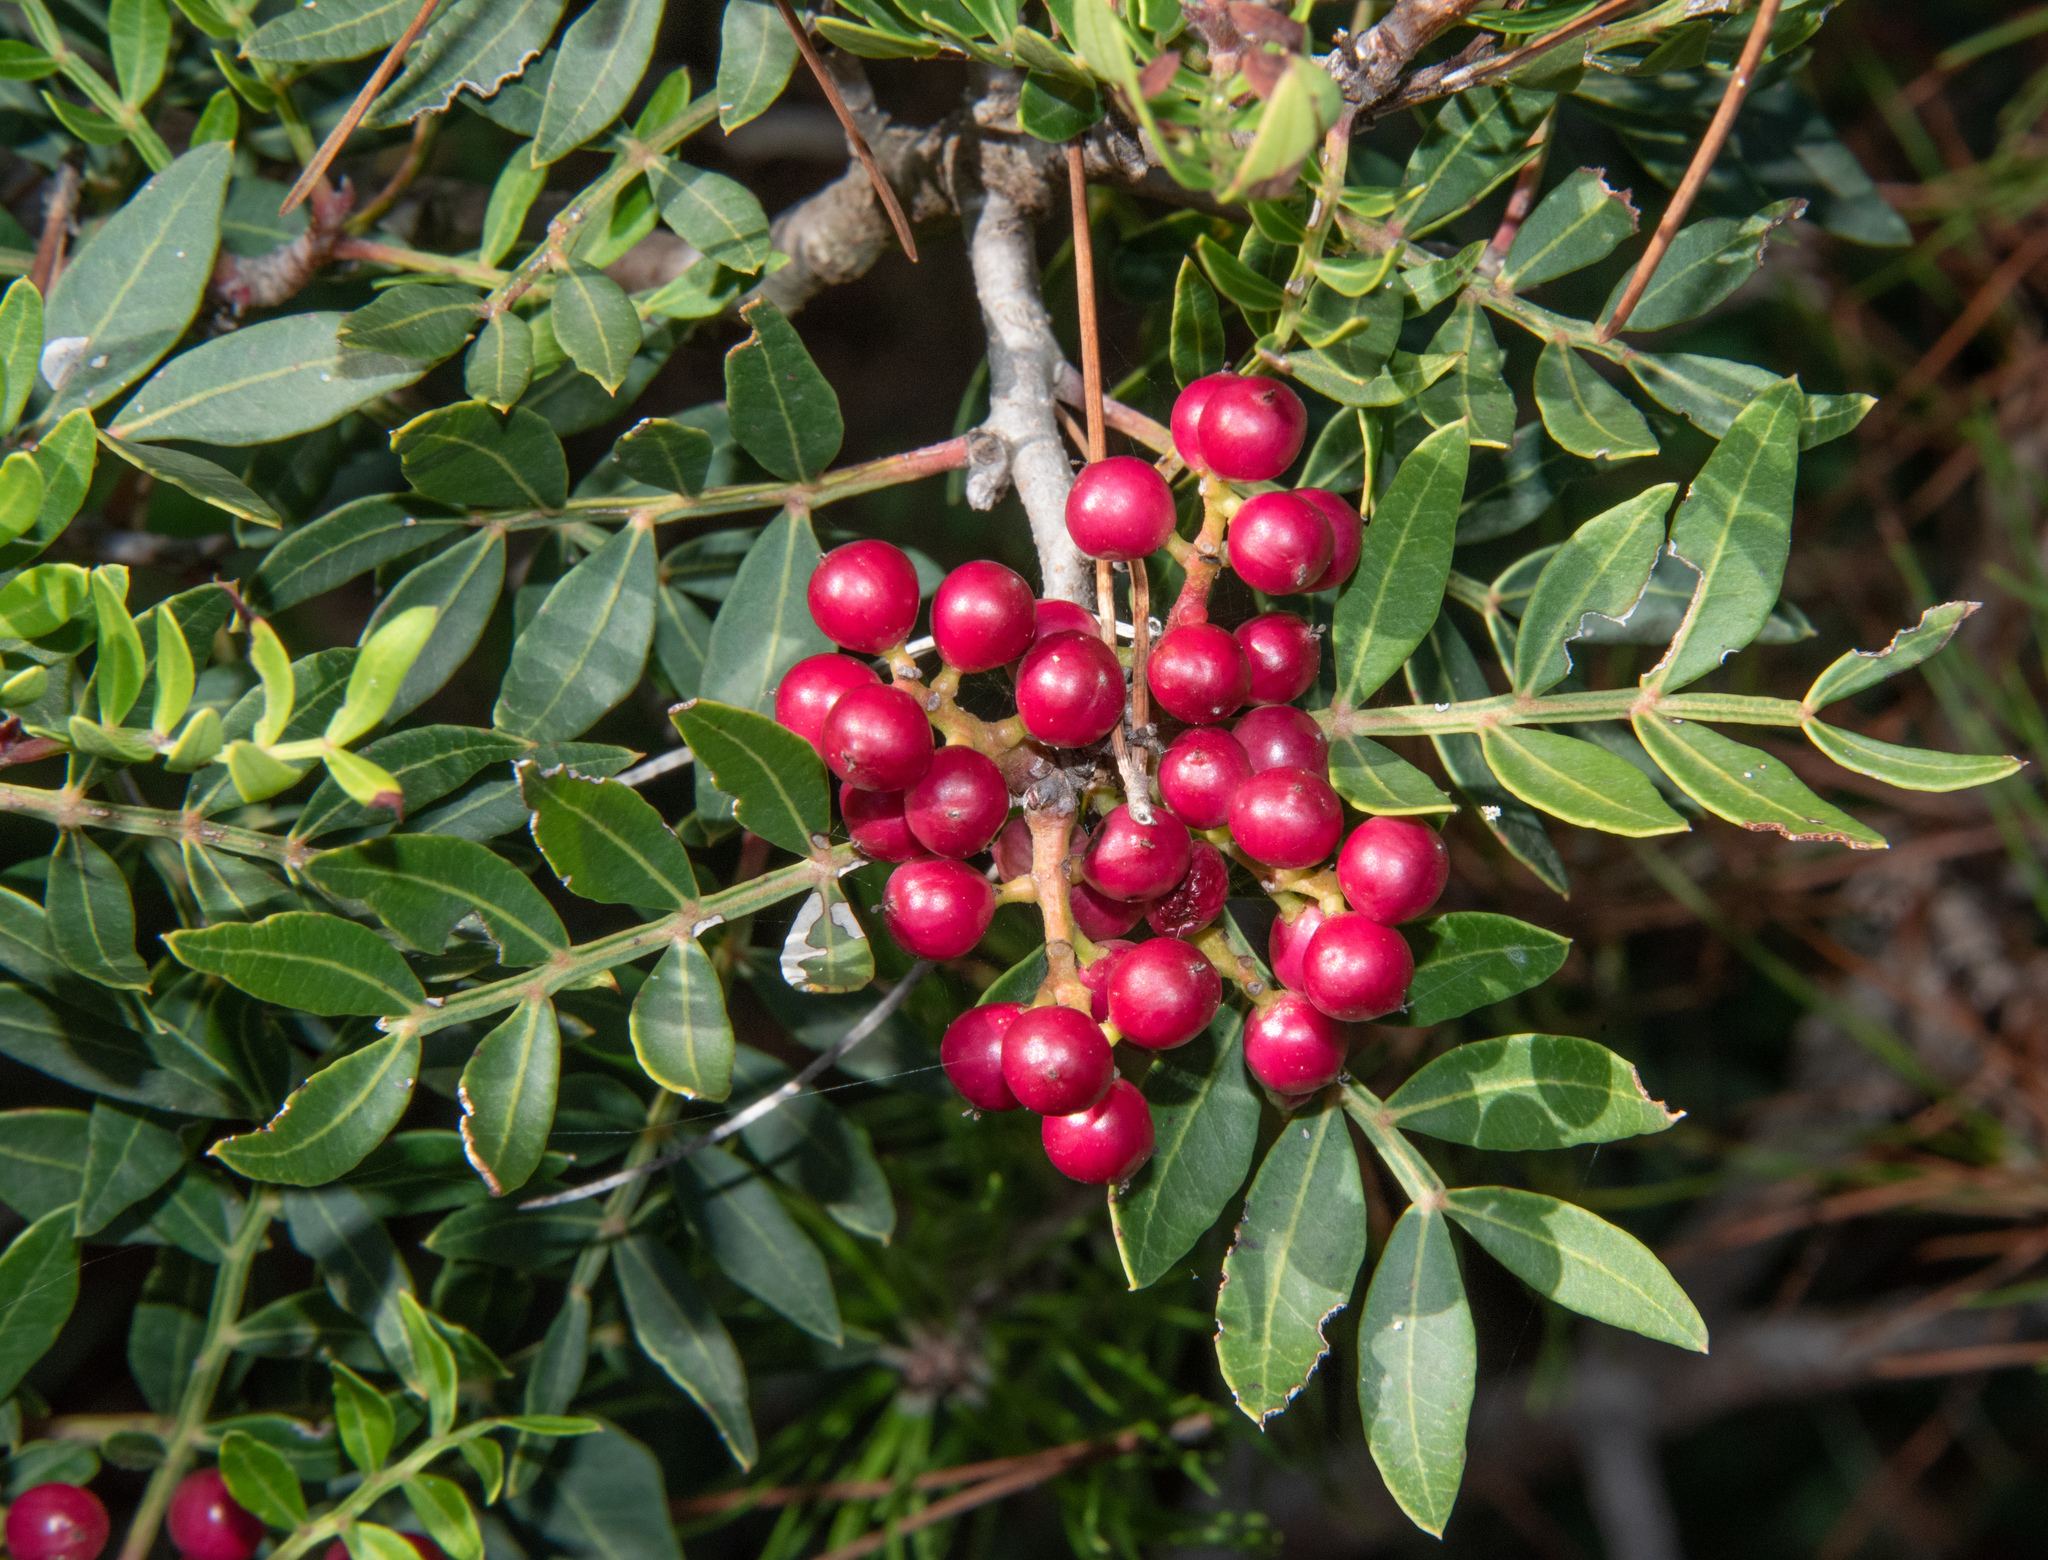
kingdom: Plantae
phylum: Tracheophyta
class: Magnoliopsida
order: Sapindales
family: Anacardiaceae
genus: Pistacia
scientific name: Pistacia lentiscus
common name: Lentisk
